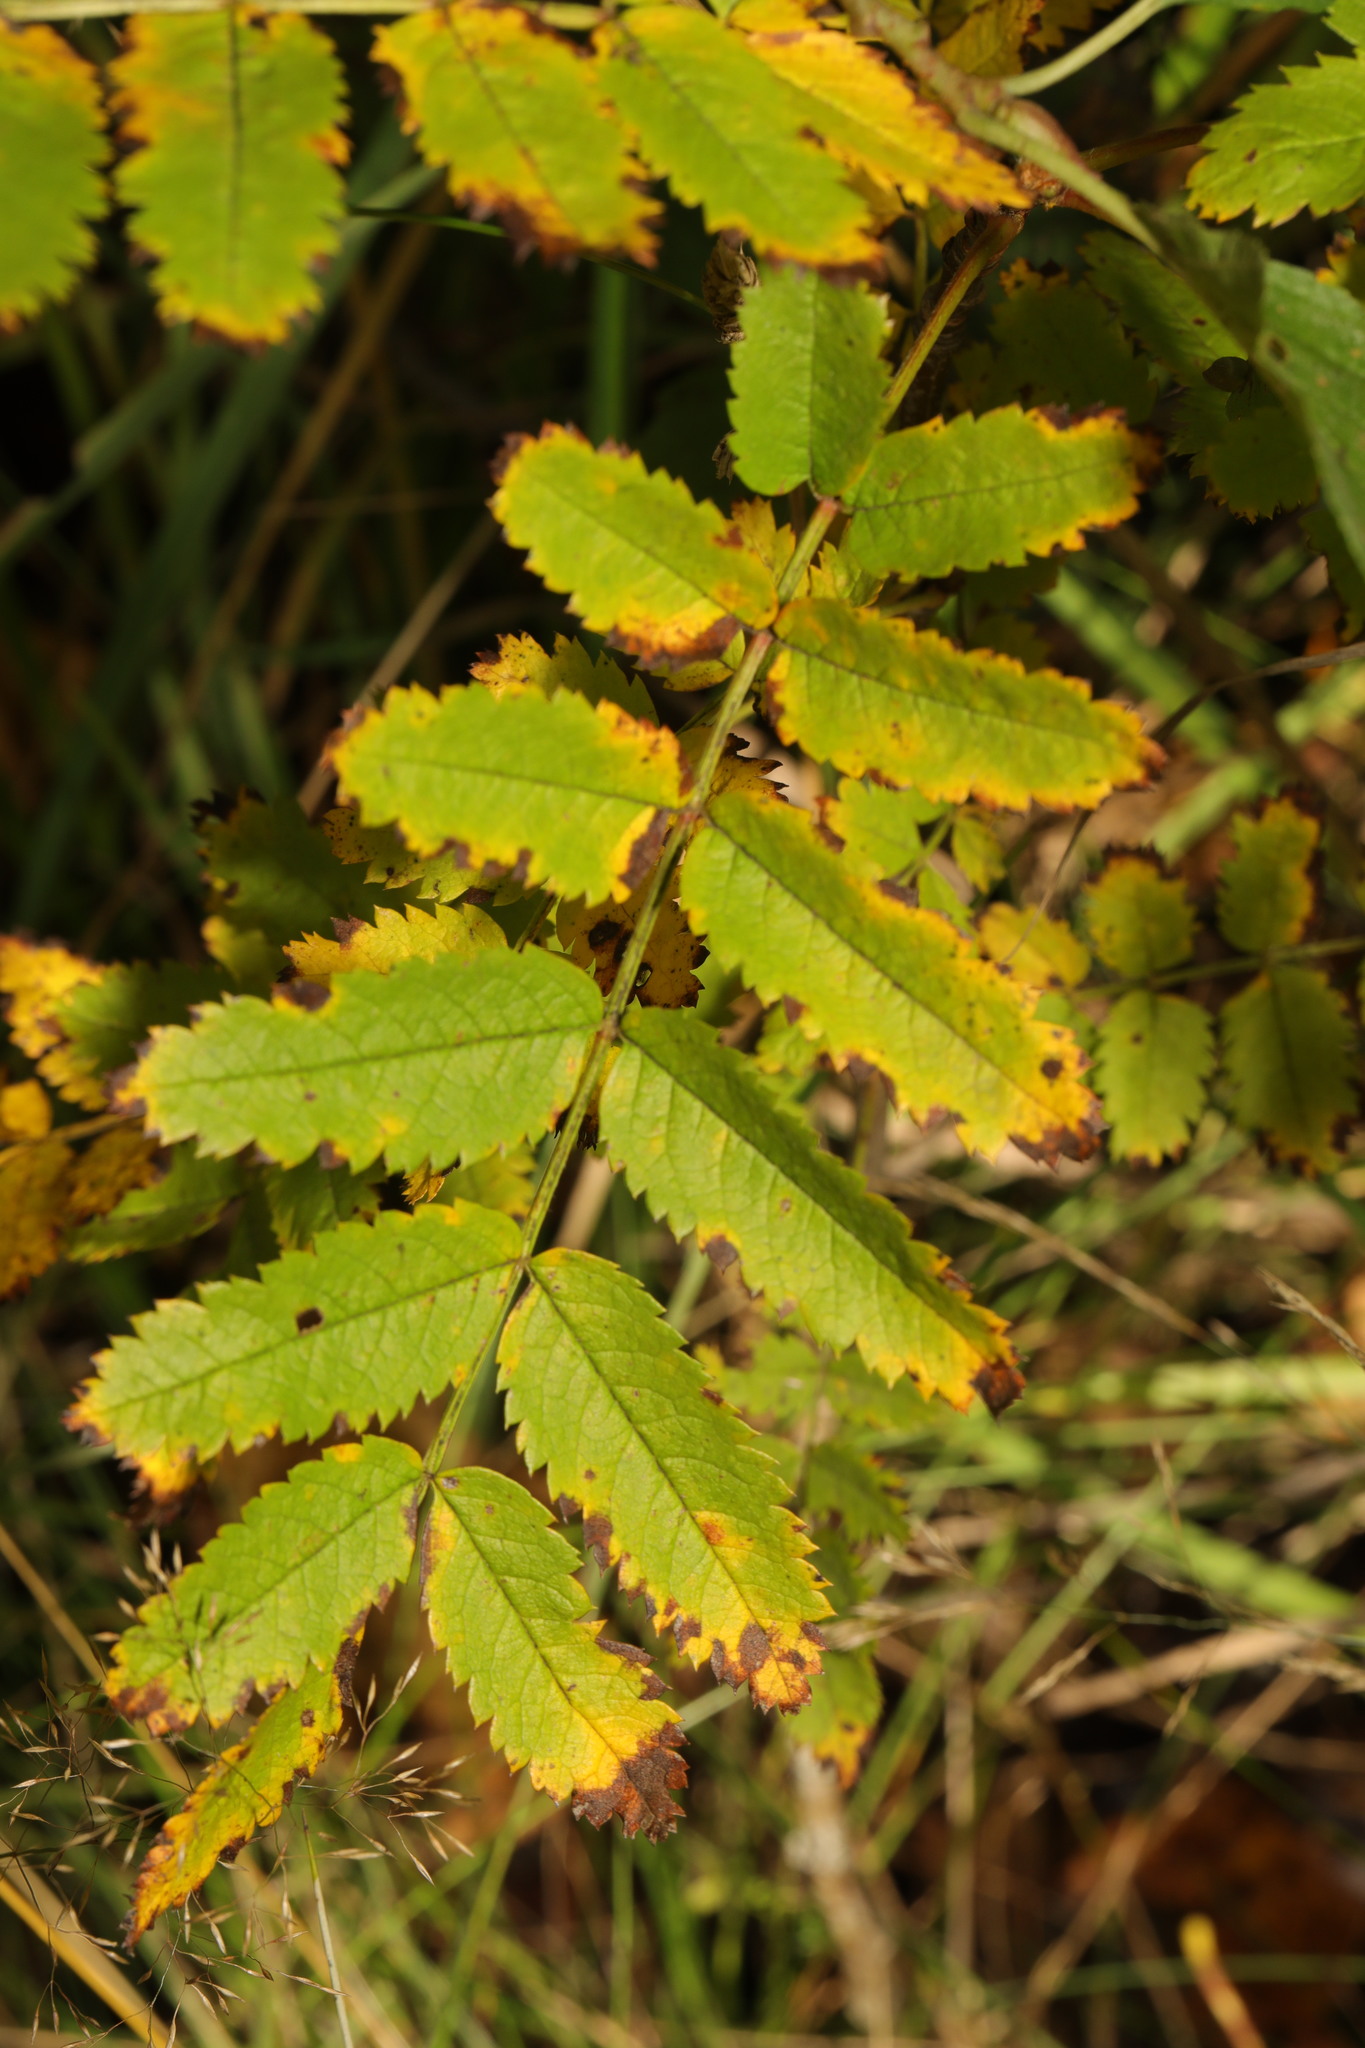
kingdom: Plantae
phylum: Tracheophyta
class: Magnoliopsida
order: Rosales
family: Rosaceae
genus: Sorbus
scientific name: Sorbus aucuparia
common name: Rowan
